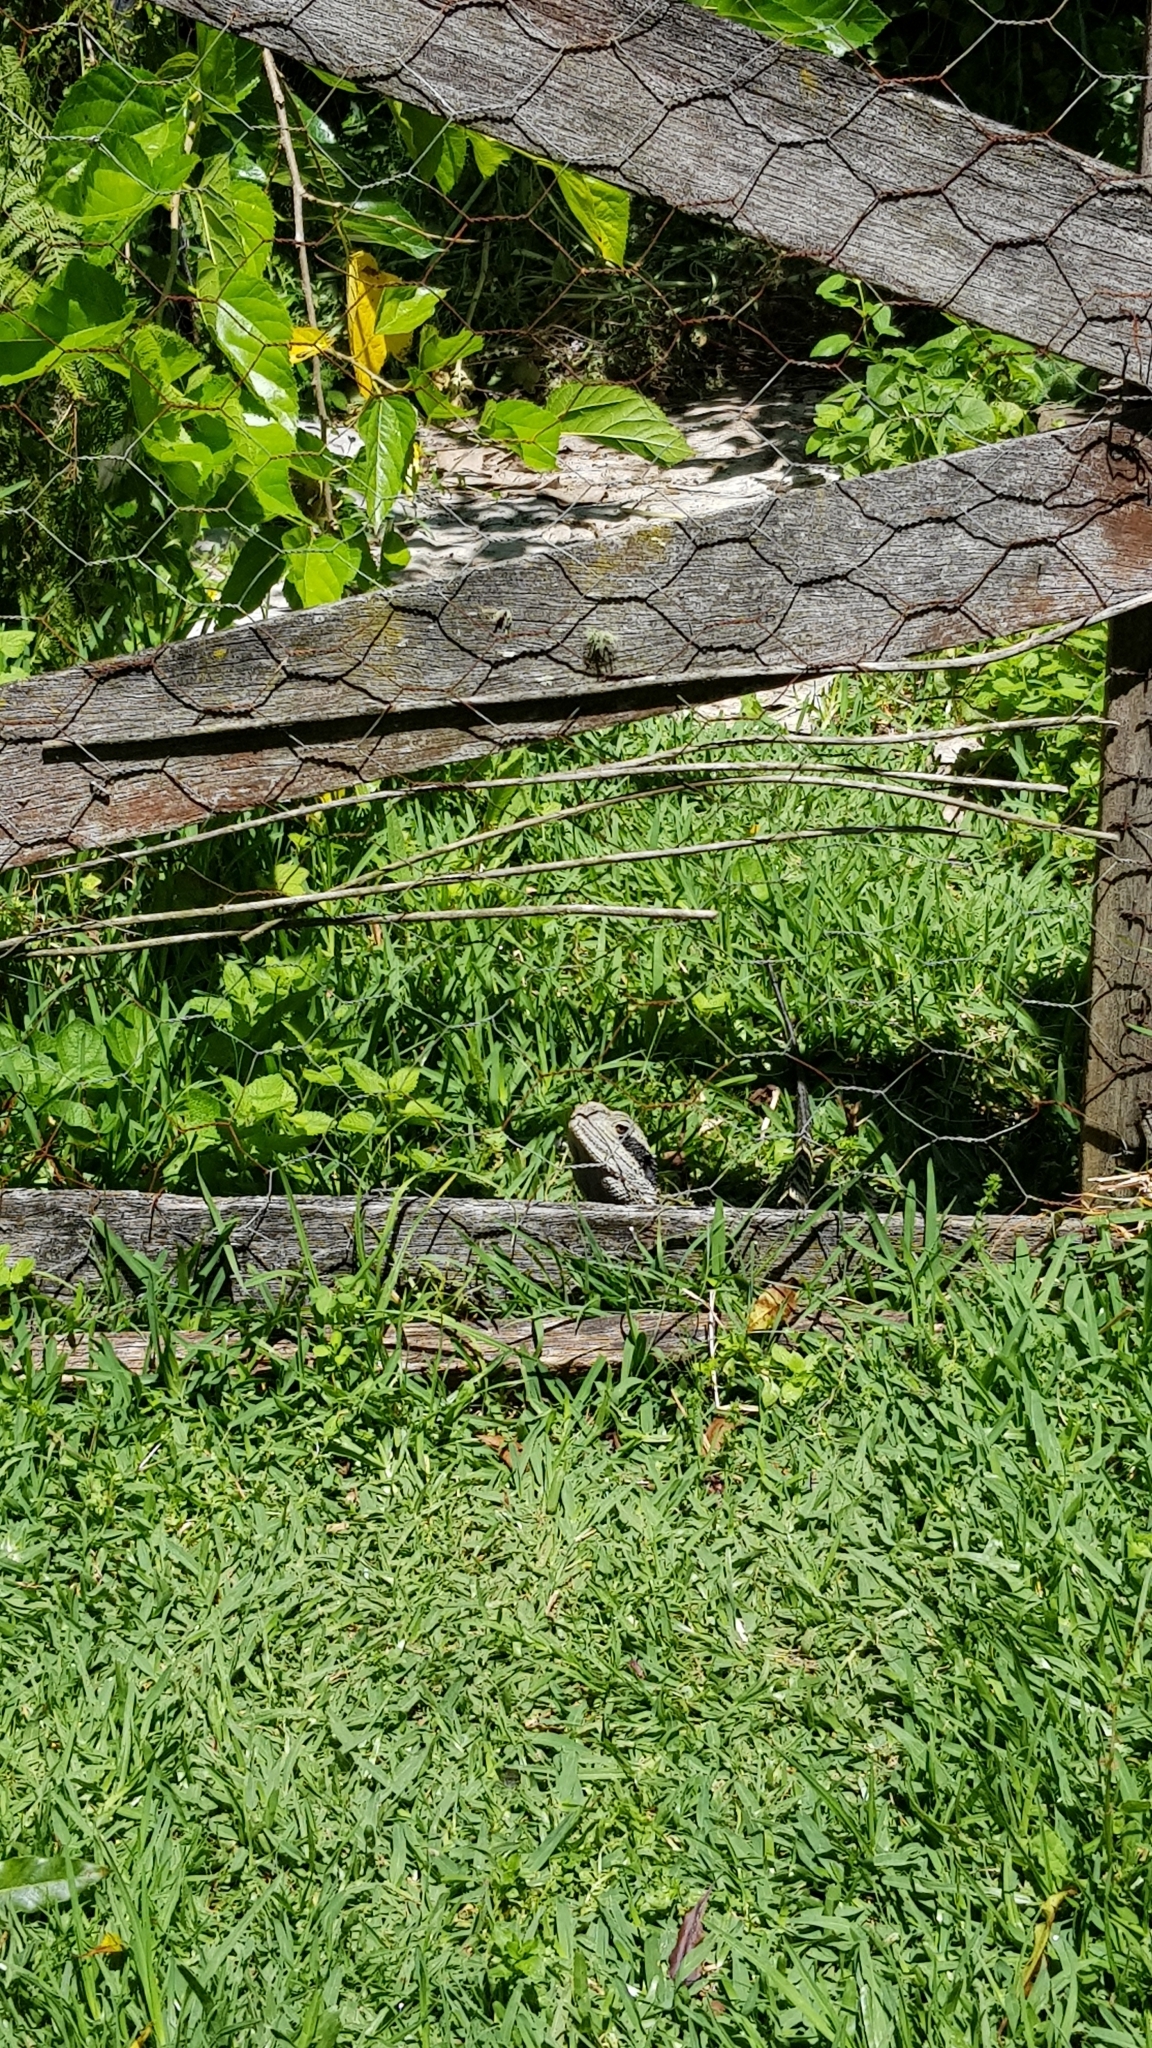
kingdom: Animalia
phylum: Chordata
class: Squamata
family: Agamidae
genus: Intellagama
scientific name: Intellagama lesueurii
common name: Eastern water dragon
